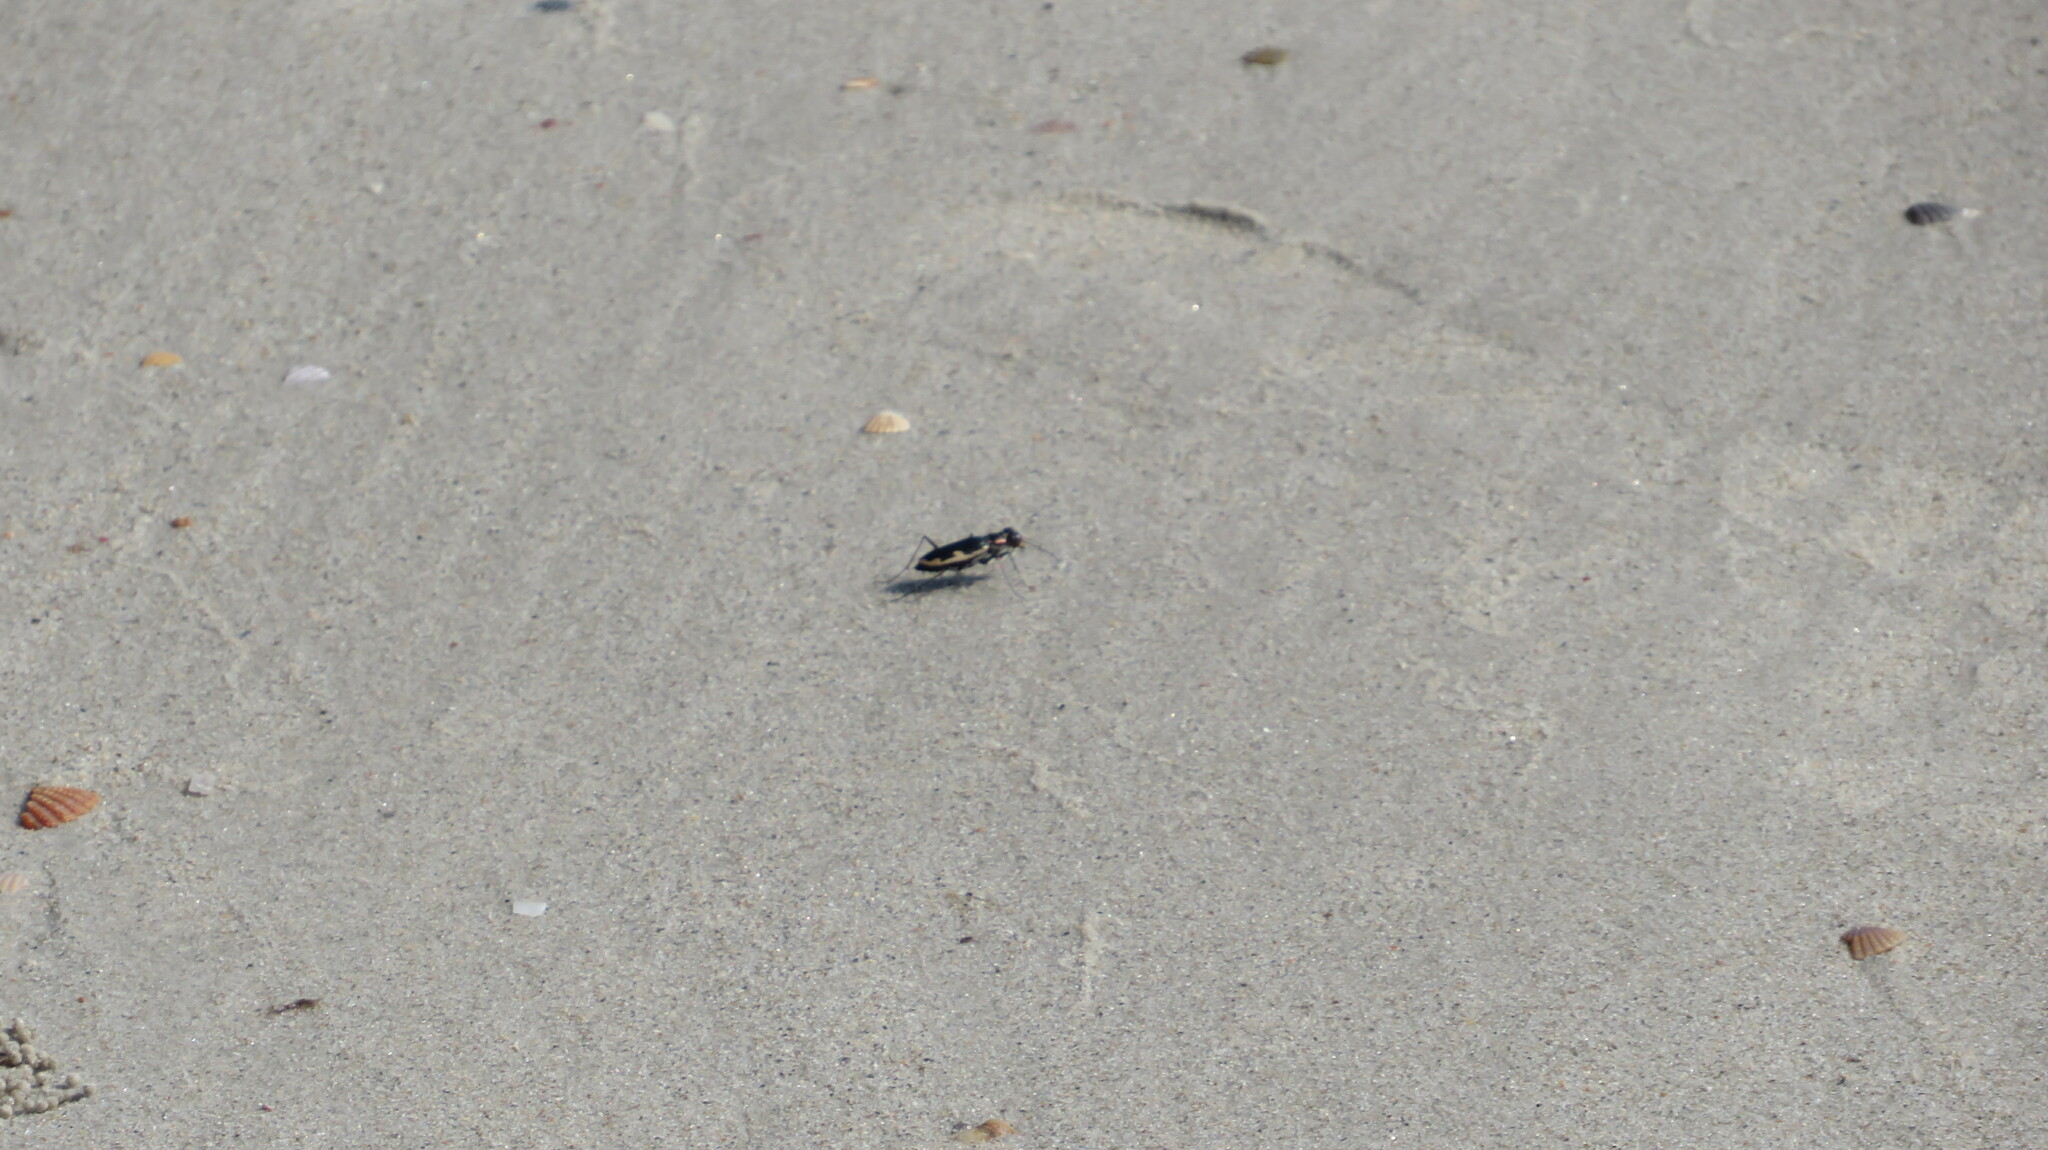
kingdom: Animalia
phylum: Arthropoda
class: Insecta
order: Coleoptera
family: Carabidae
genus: Hypaetha
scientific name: Hypaetha biramosa
